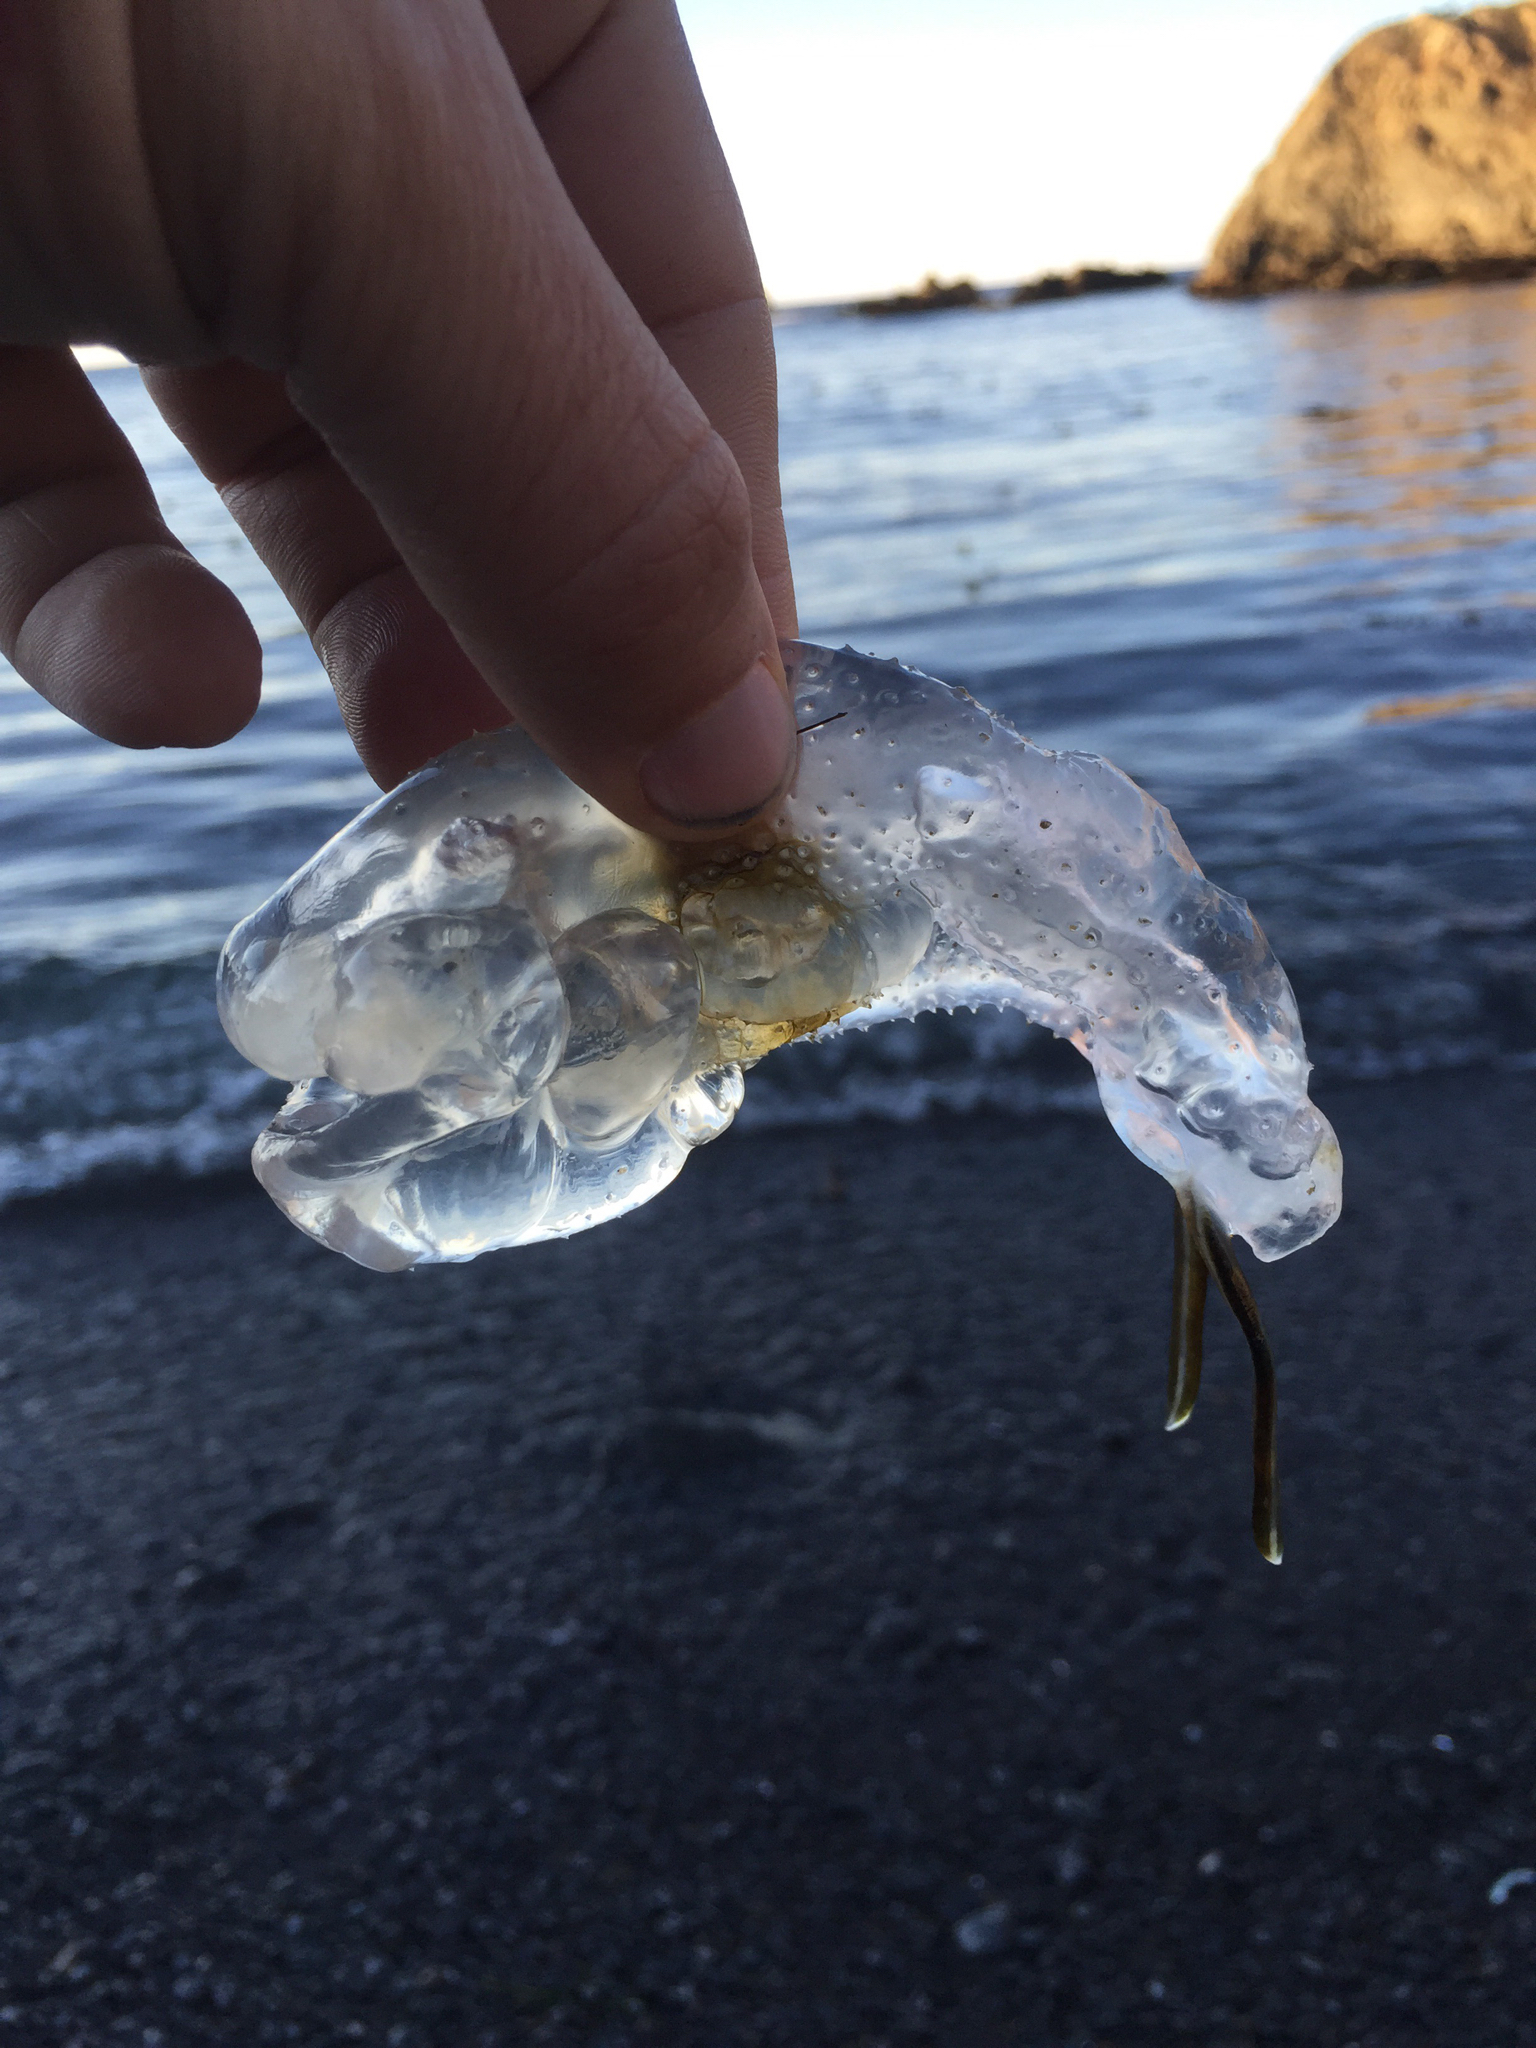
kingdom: Animalia
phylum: Chordata
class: Thaliacea
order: Salpida
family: Salpidae
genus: Thetys
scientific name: Thetys vagina
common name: Vagina salp
